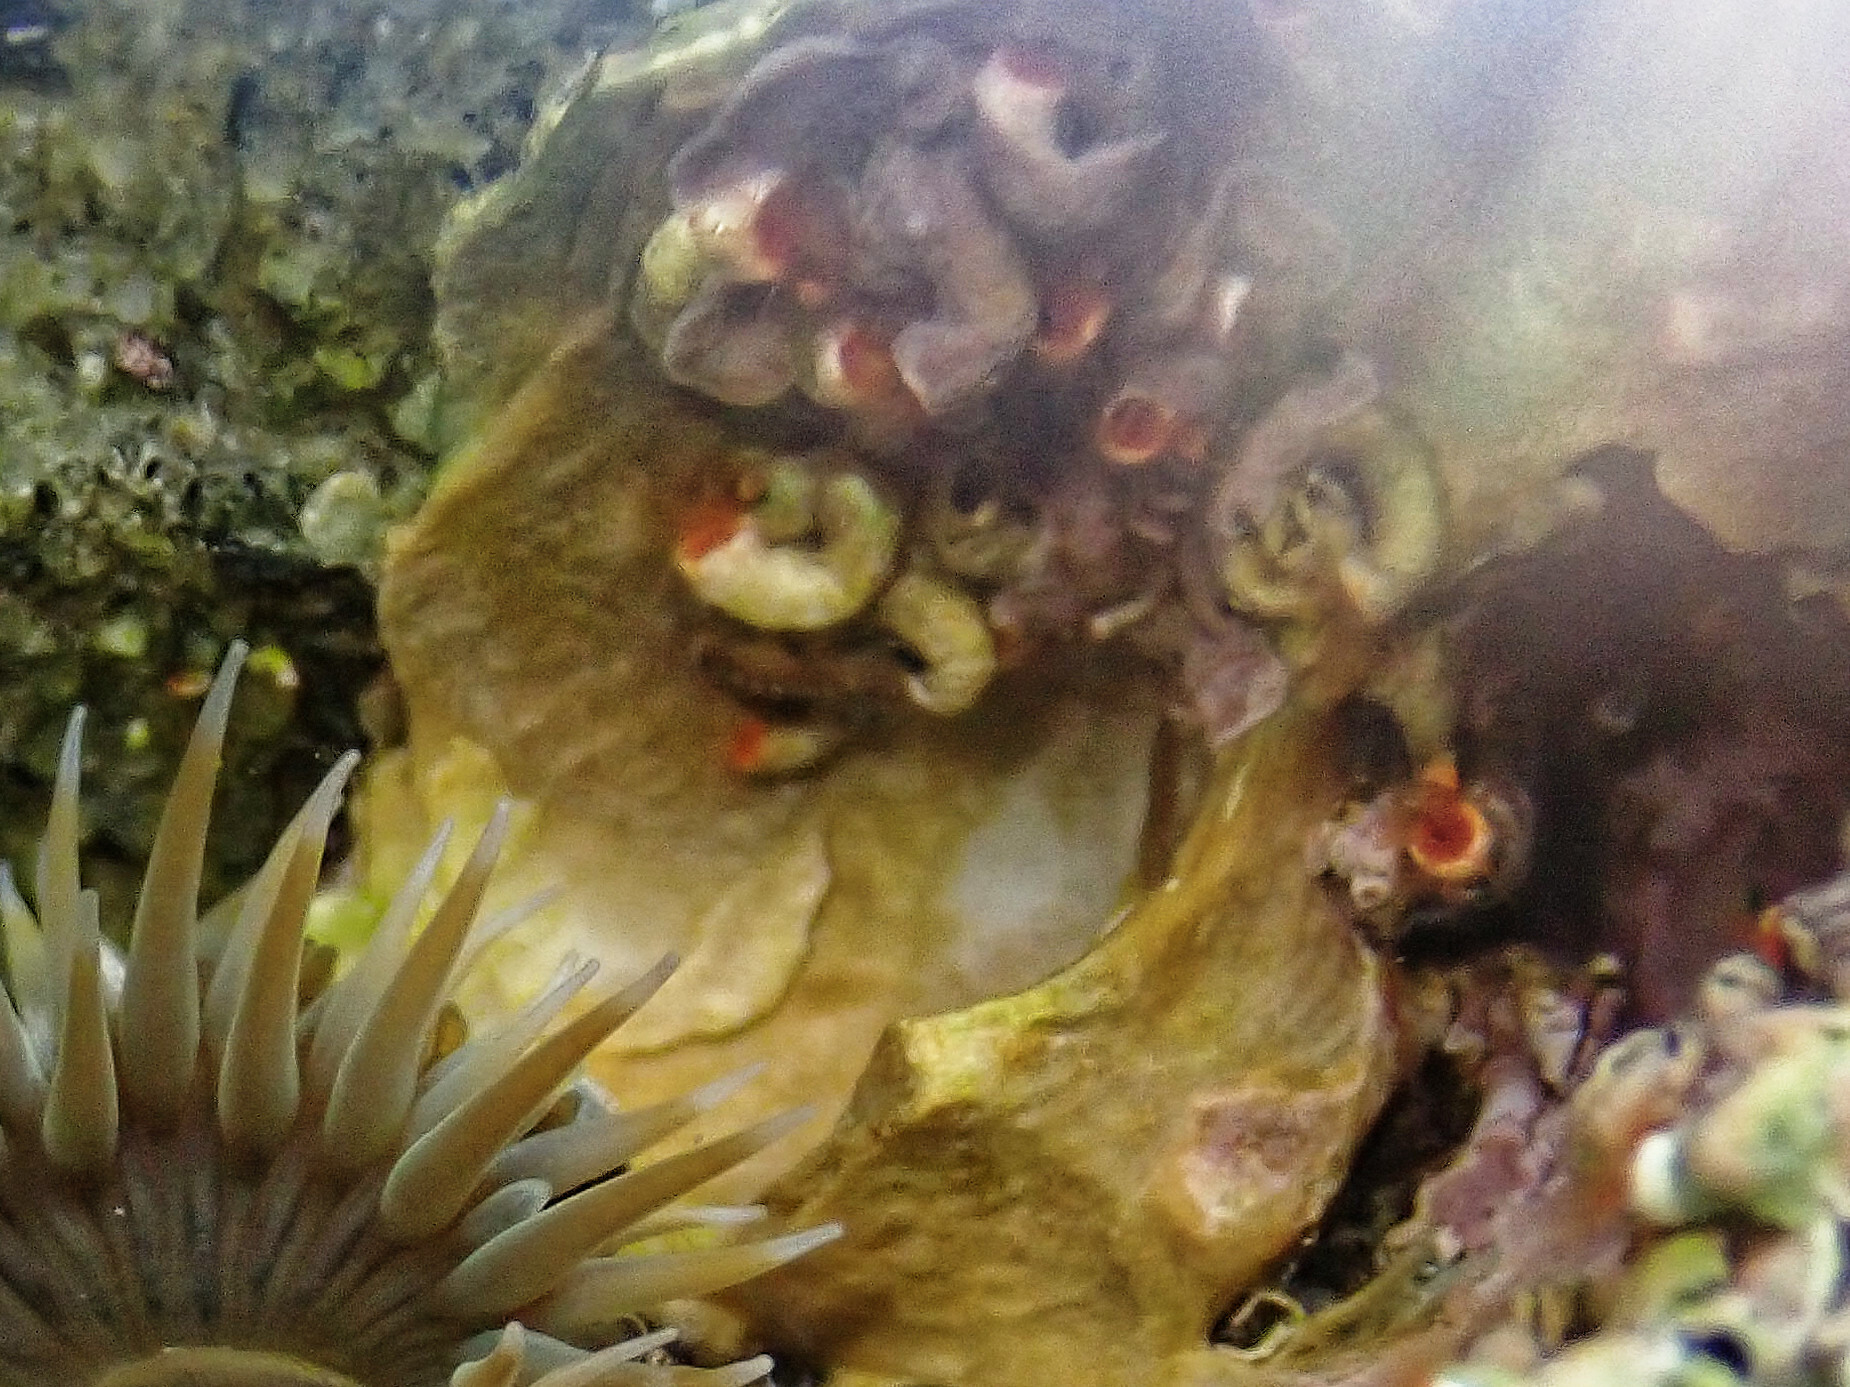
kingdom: Animalia
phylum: Annelida
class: Polychaeta
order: Sabellida
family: Serpulidae
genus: Serpula
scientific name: Serpula columbiana
